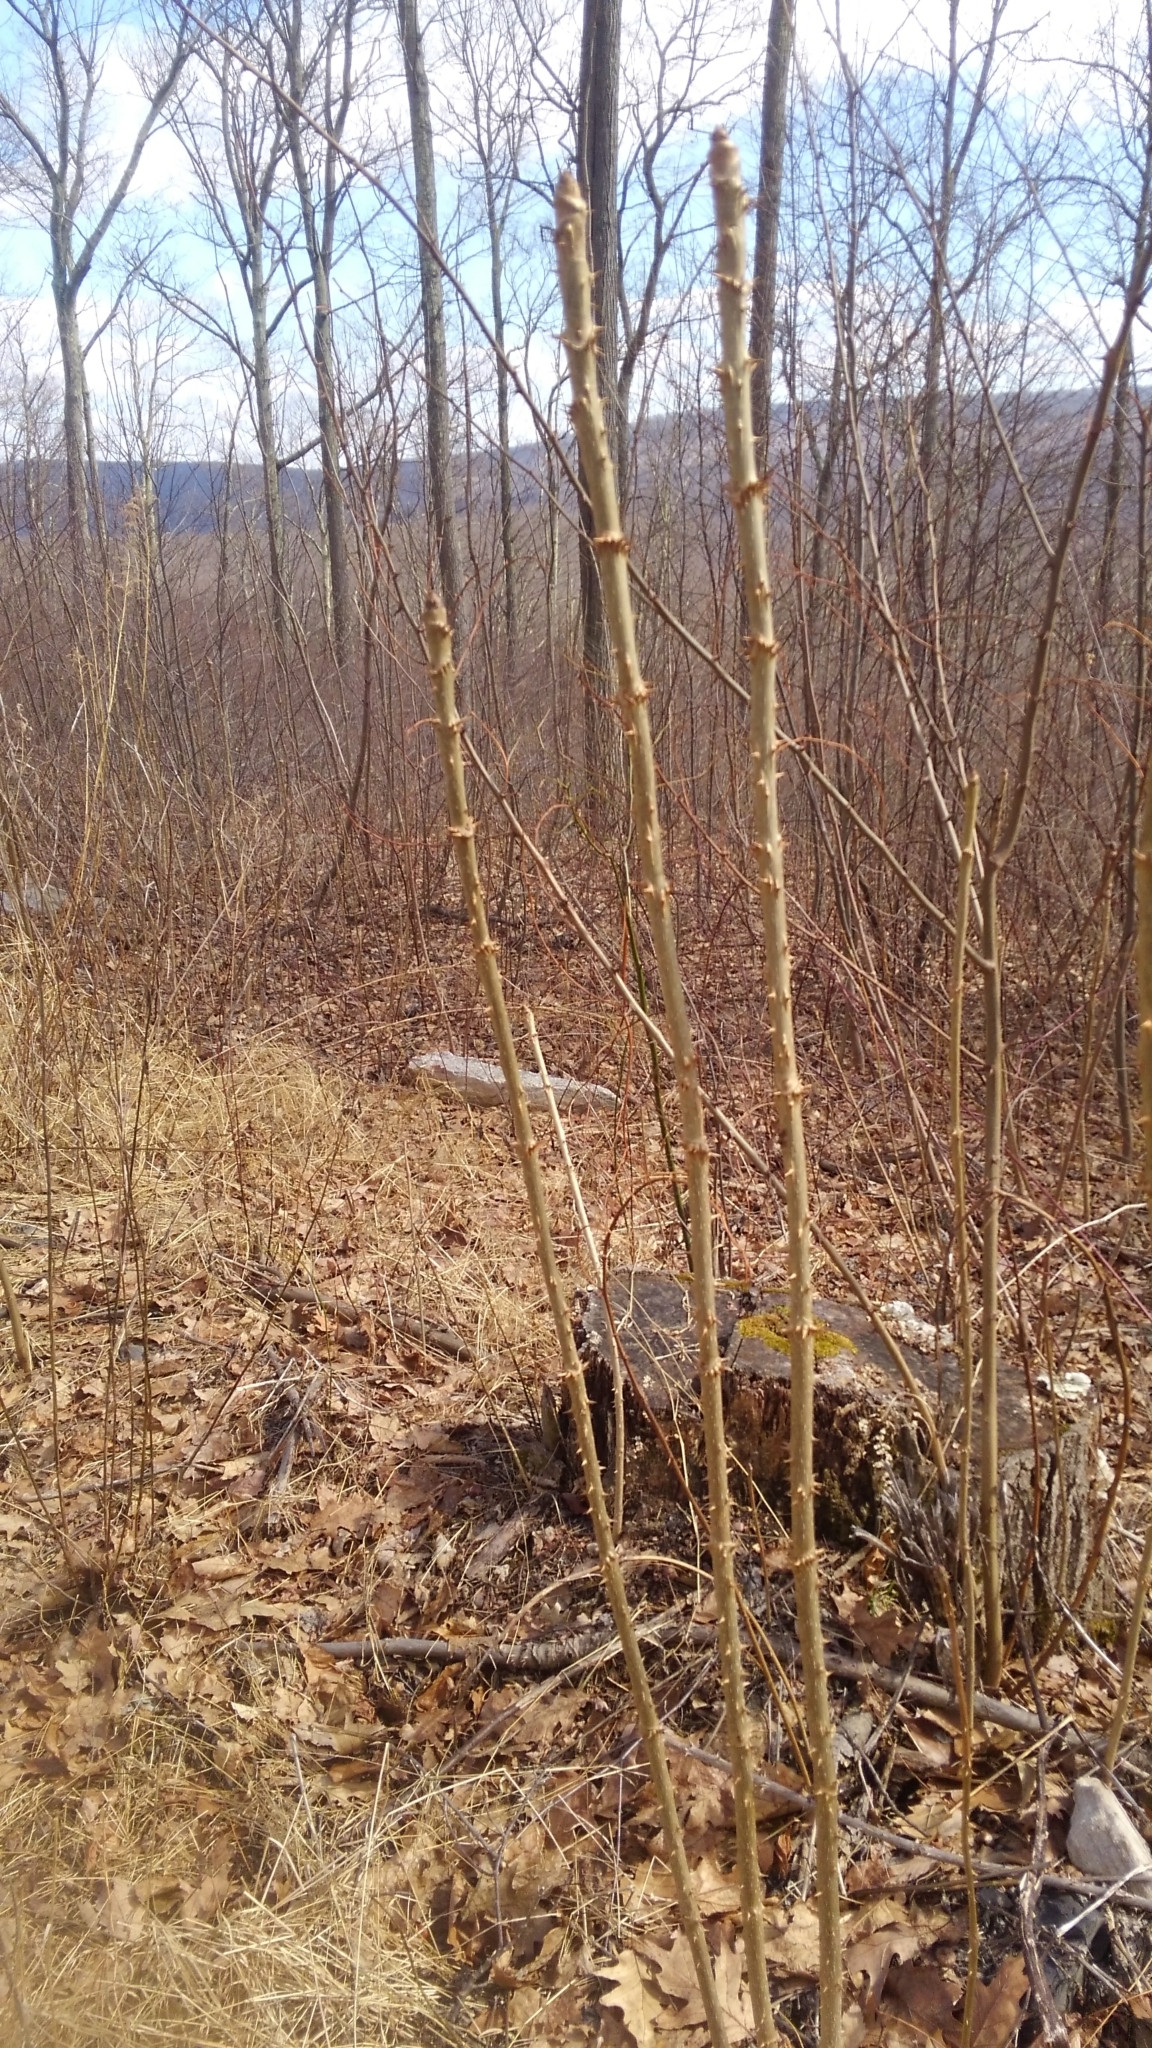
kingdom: Plantae
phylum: Tracheophyta
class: Magnoliopsida
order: Apiales
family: Araliaceae
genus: Aralia
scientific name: Aralia spinosa
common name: Hercules'-club
